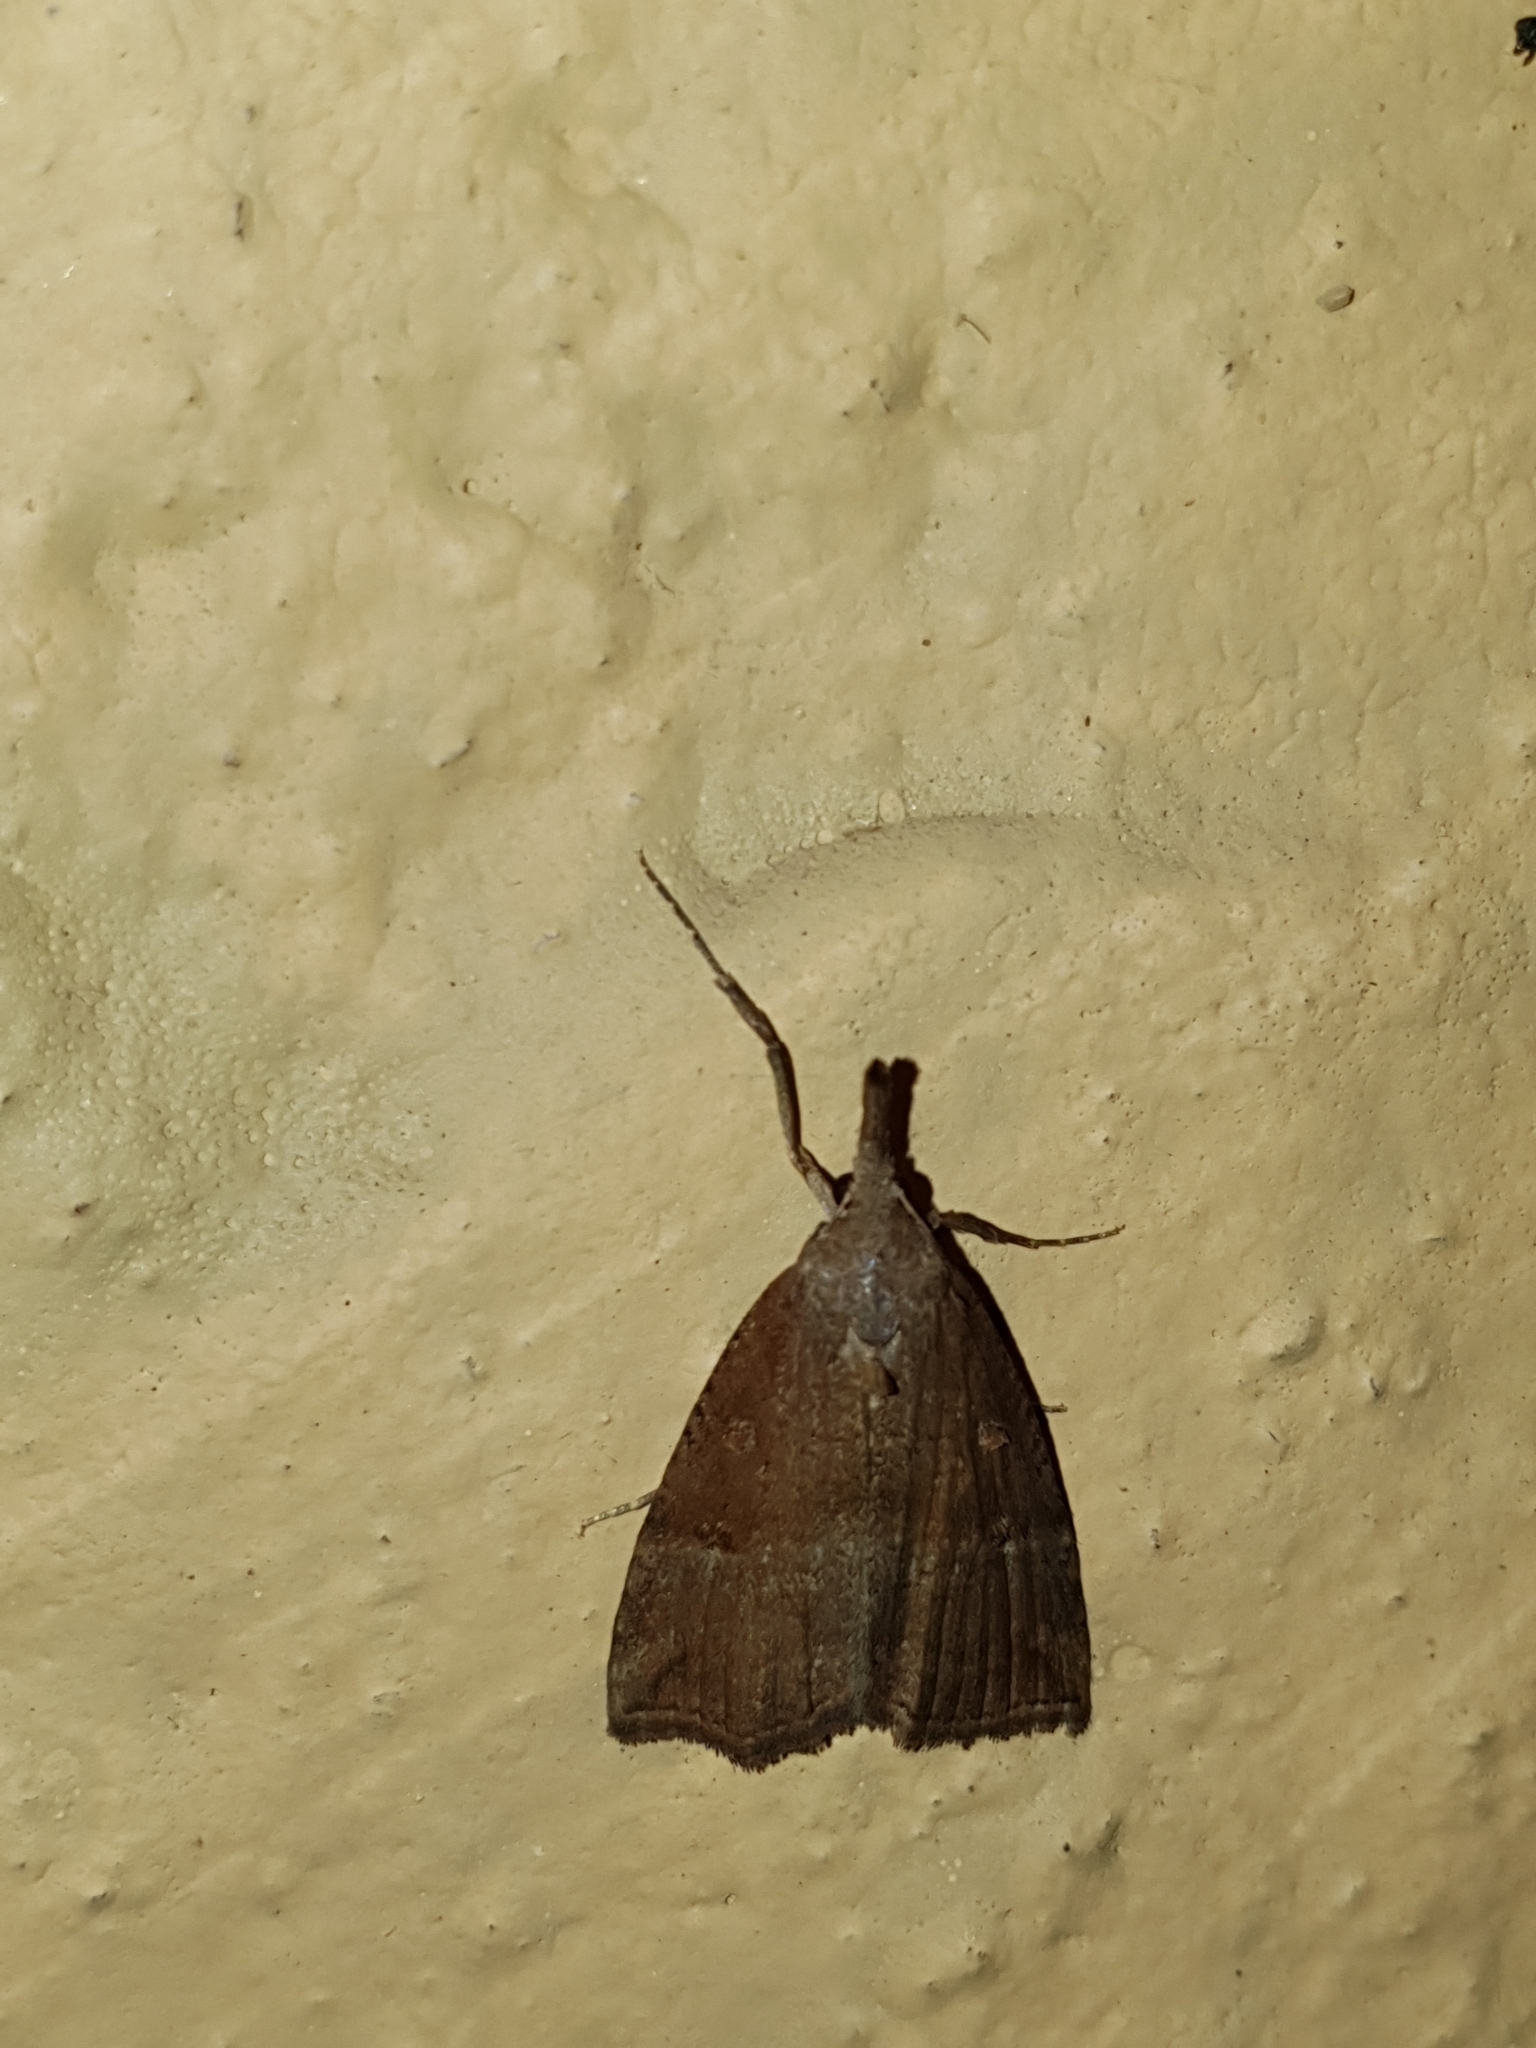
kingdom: Animalia
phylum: Arthropoda
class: Insecta
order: Lepidoptera
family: Erebidae
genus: Hypena
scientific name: Hypena rostralis
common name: Buttoned snout
